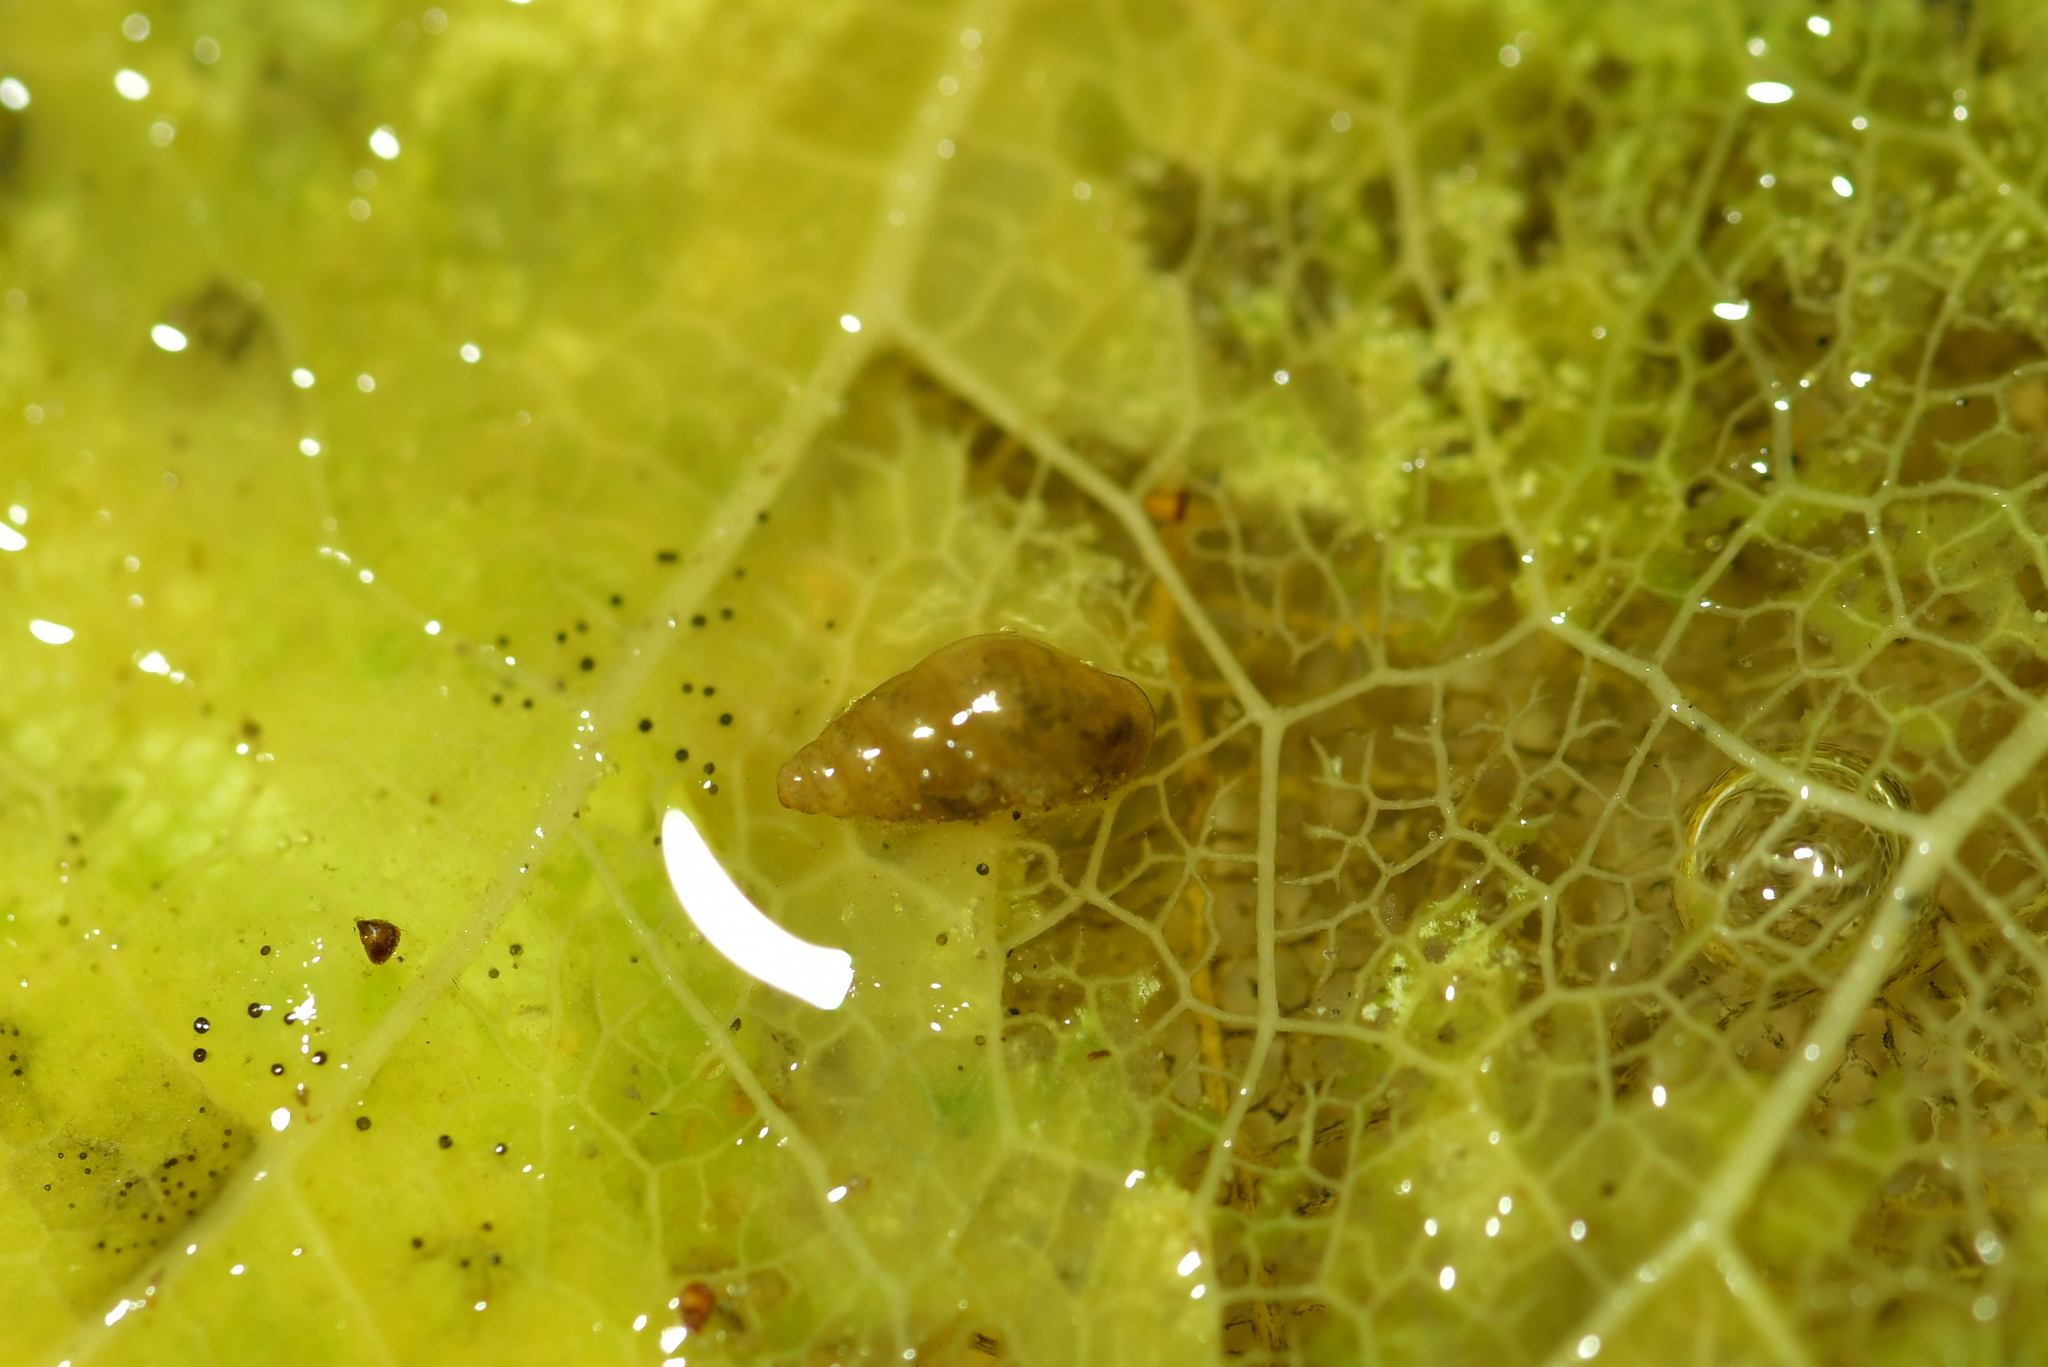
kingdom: Animalia
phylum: Mollusca
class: Gastropoda
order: Littorinimorpha
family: Tateidae
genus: Potamopyrgus
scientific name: Potamopyrgus antipodarum
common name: Jenkins' spire snail
